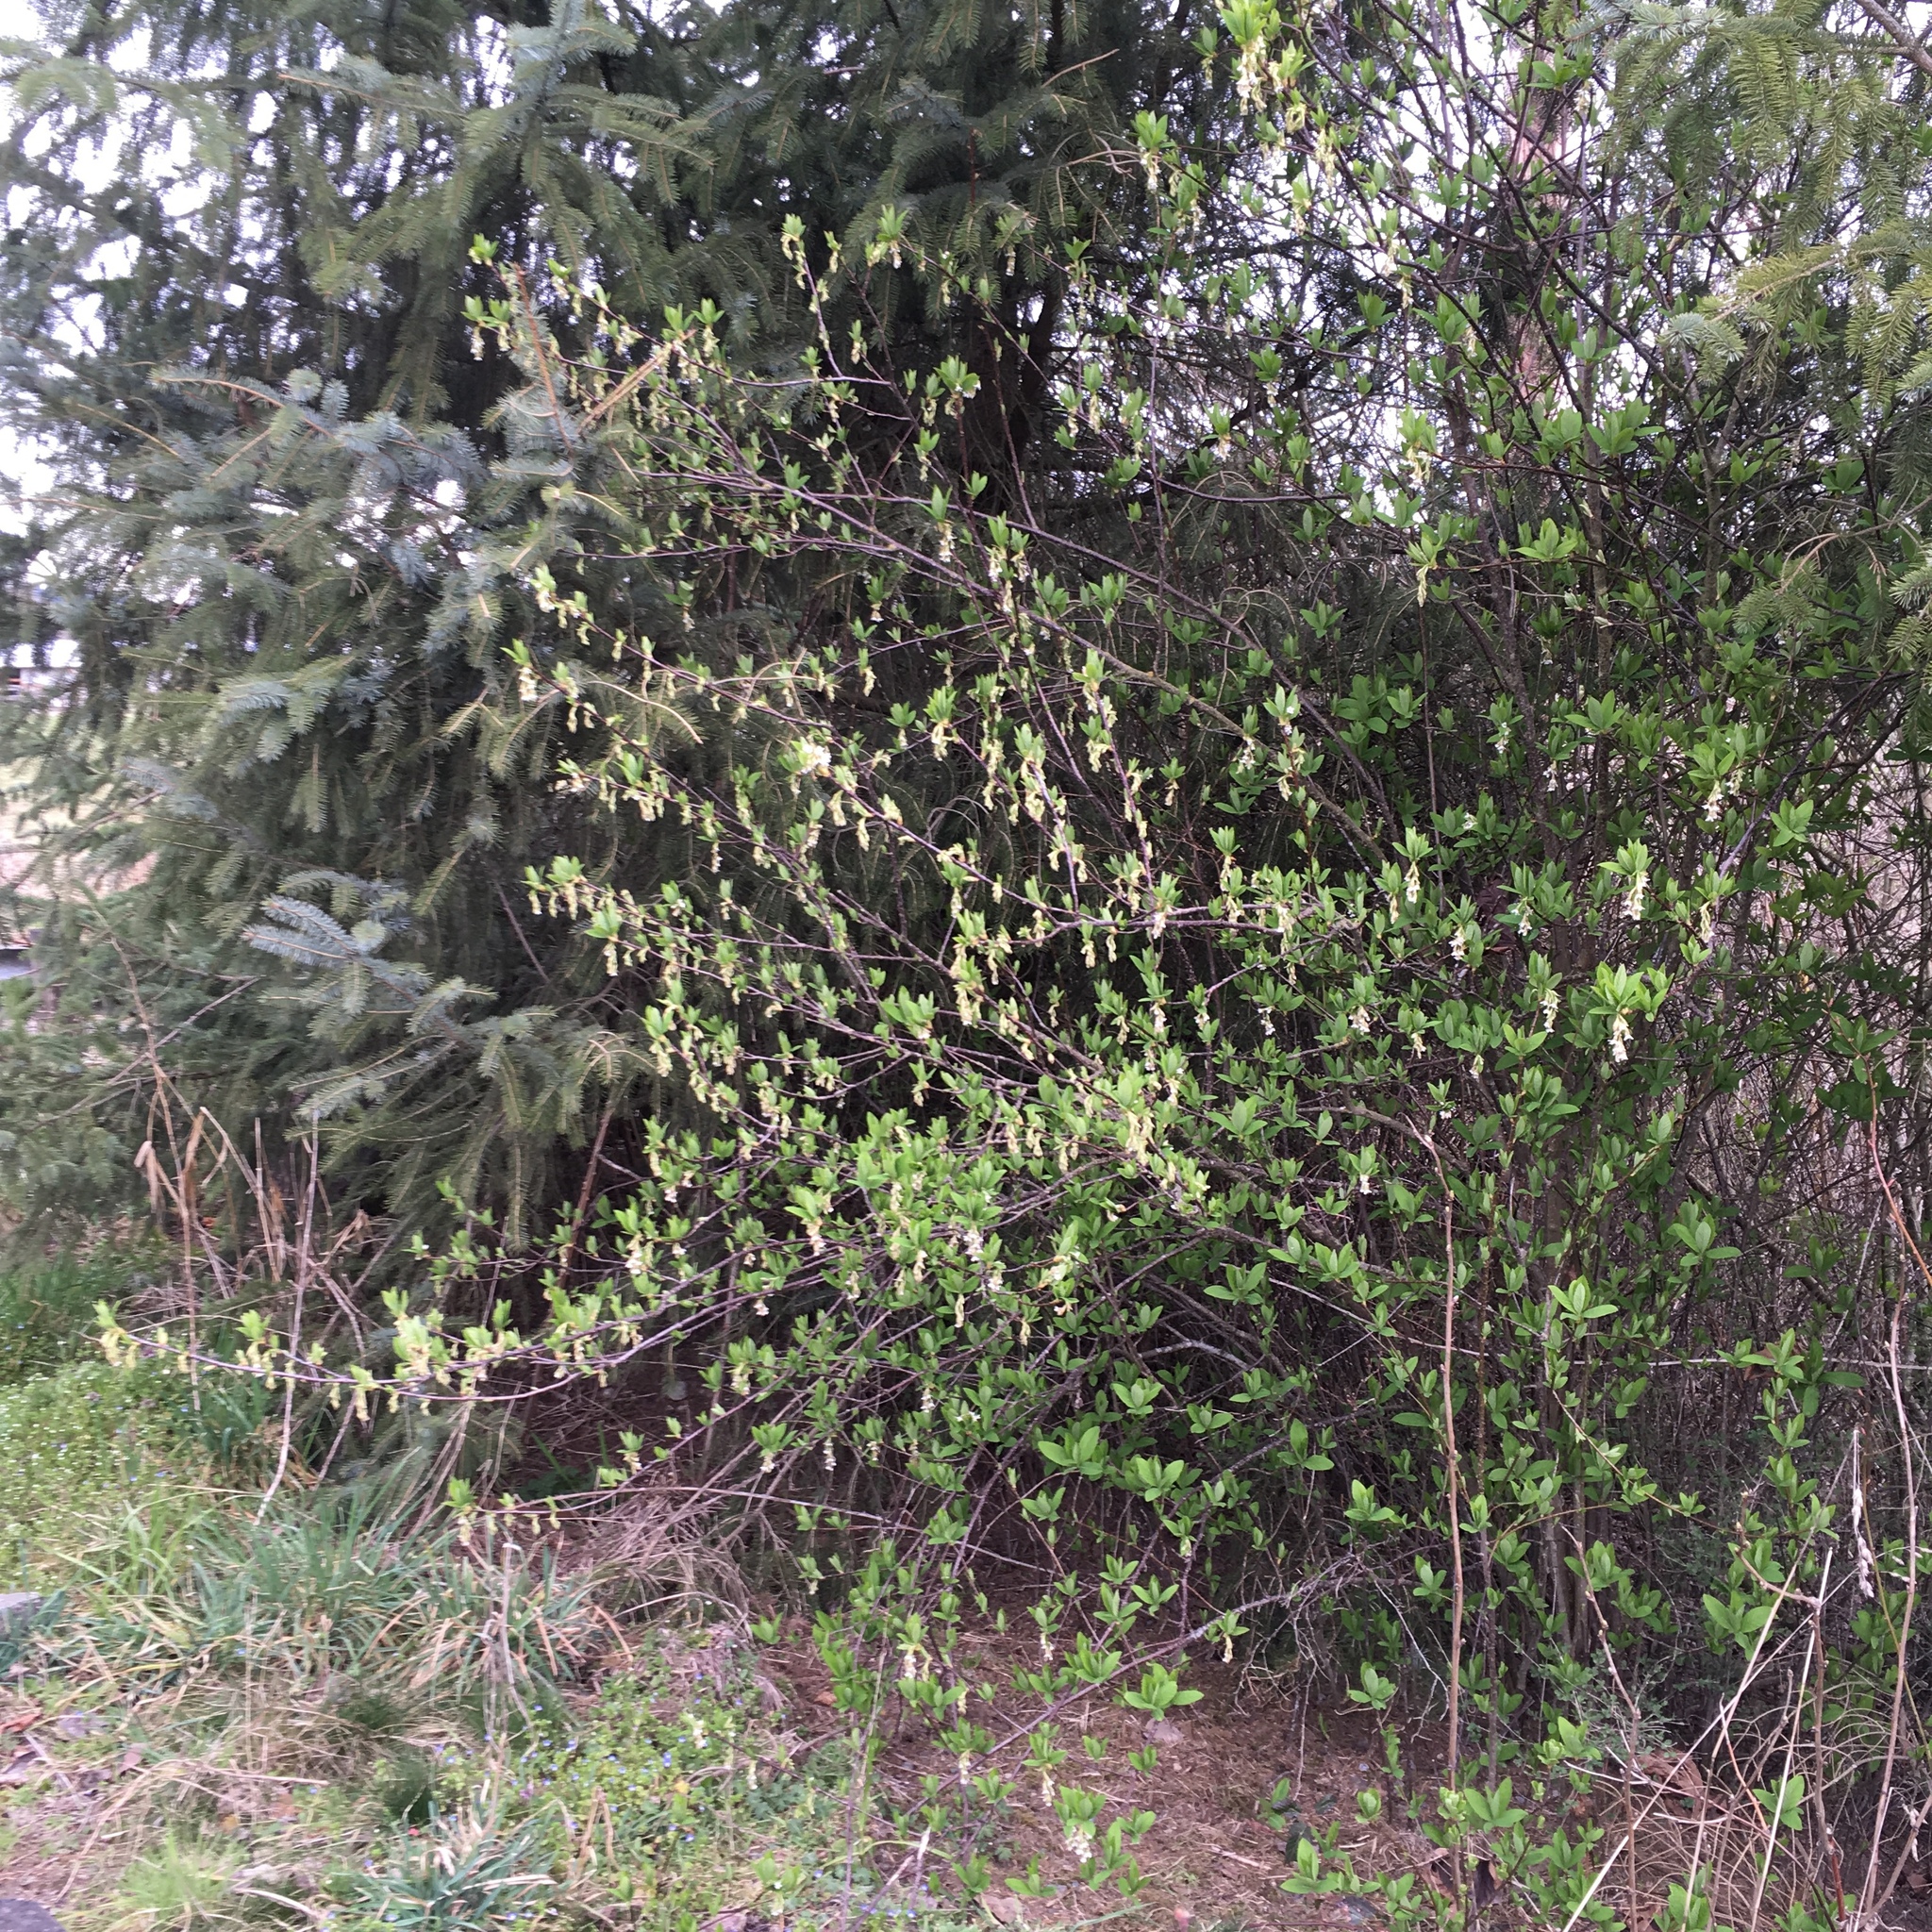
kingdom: Plantae
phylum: Tracheophyta
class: Magnoliopsida
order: Rosales
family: Rosaceae
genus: Oemleria
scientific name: Oemleria cerasiformis
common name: Osoberry
